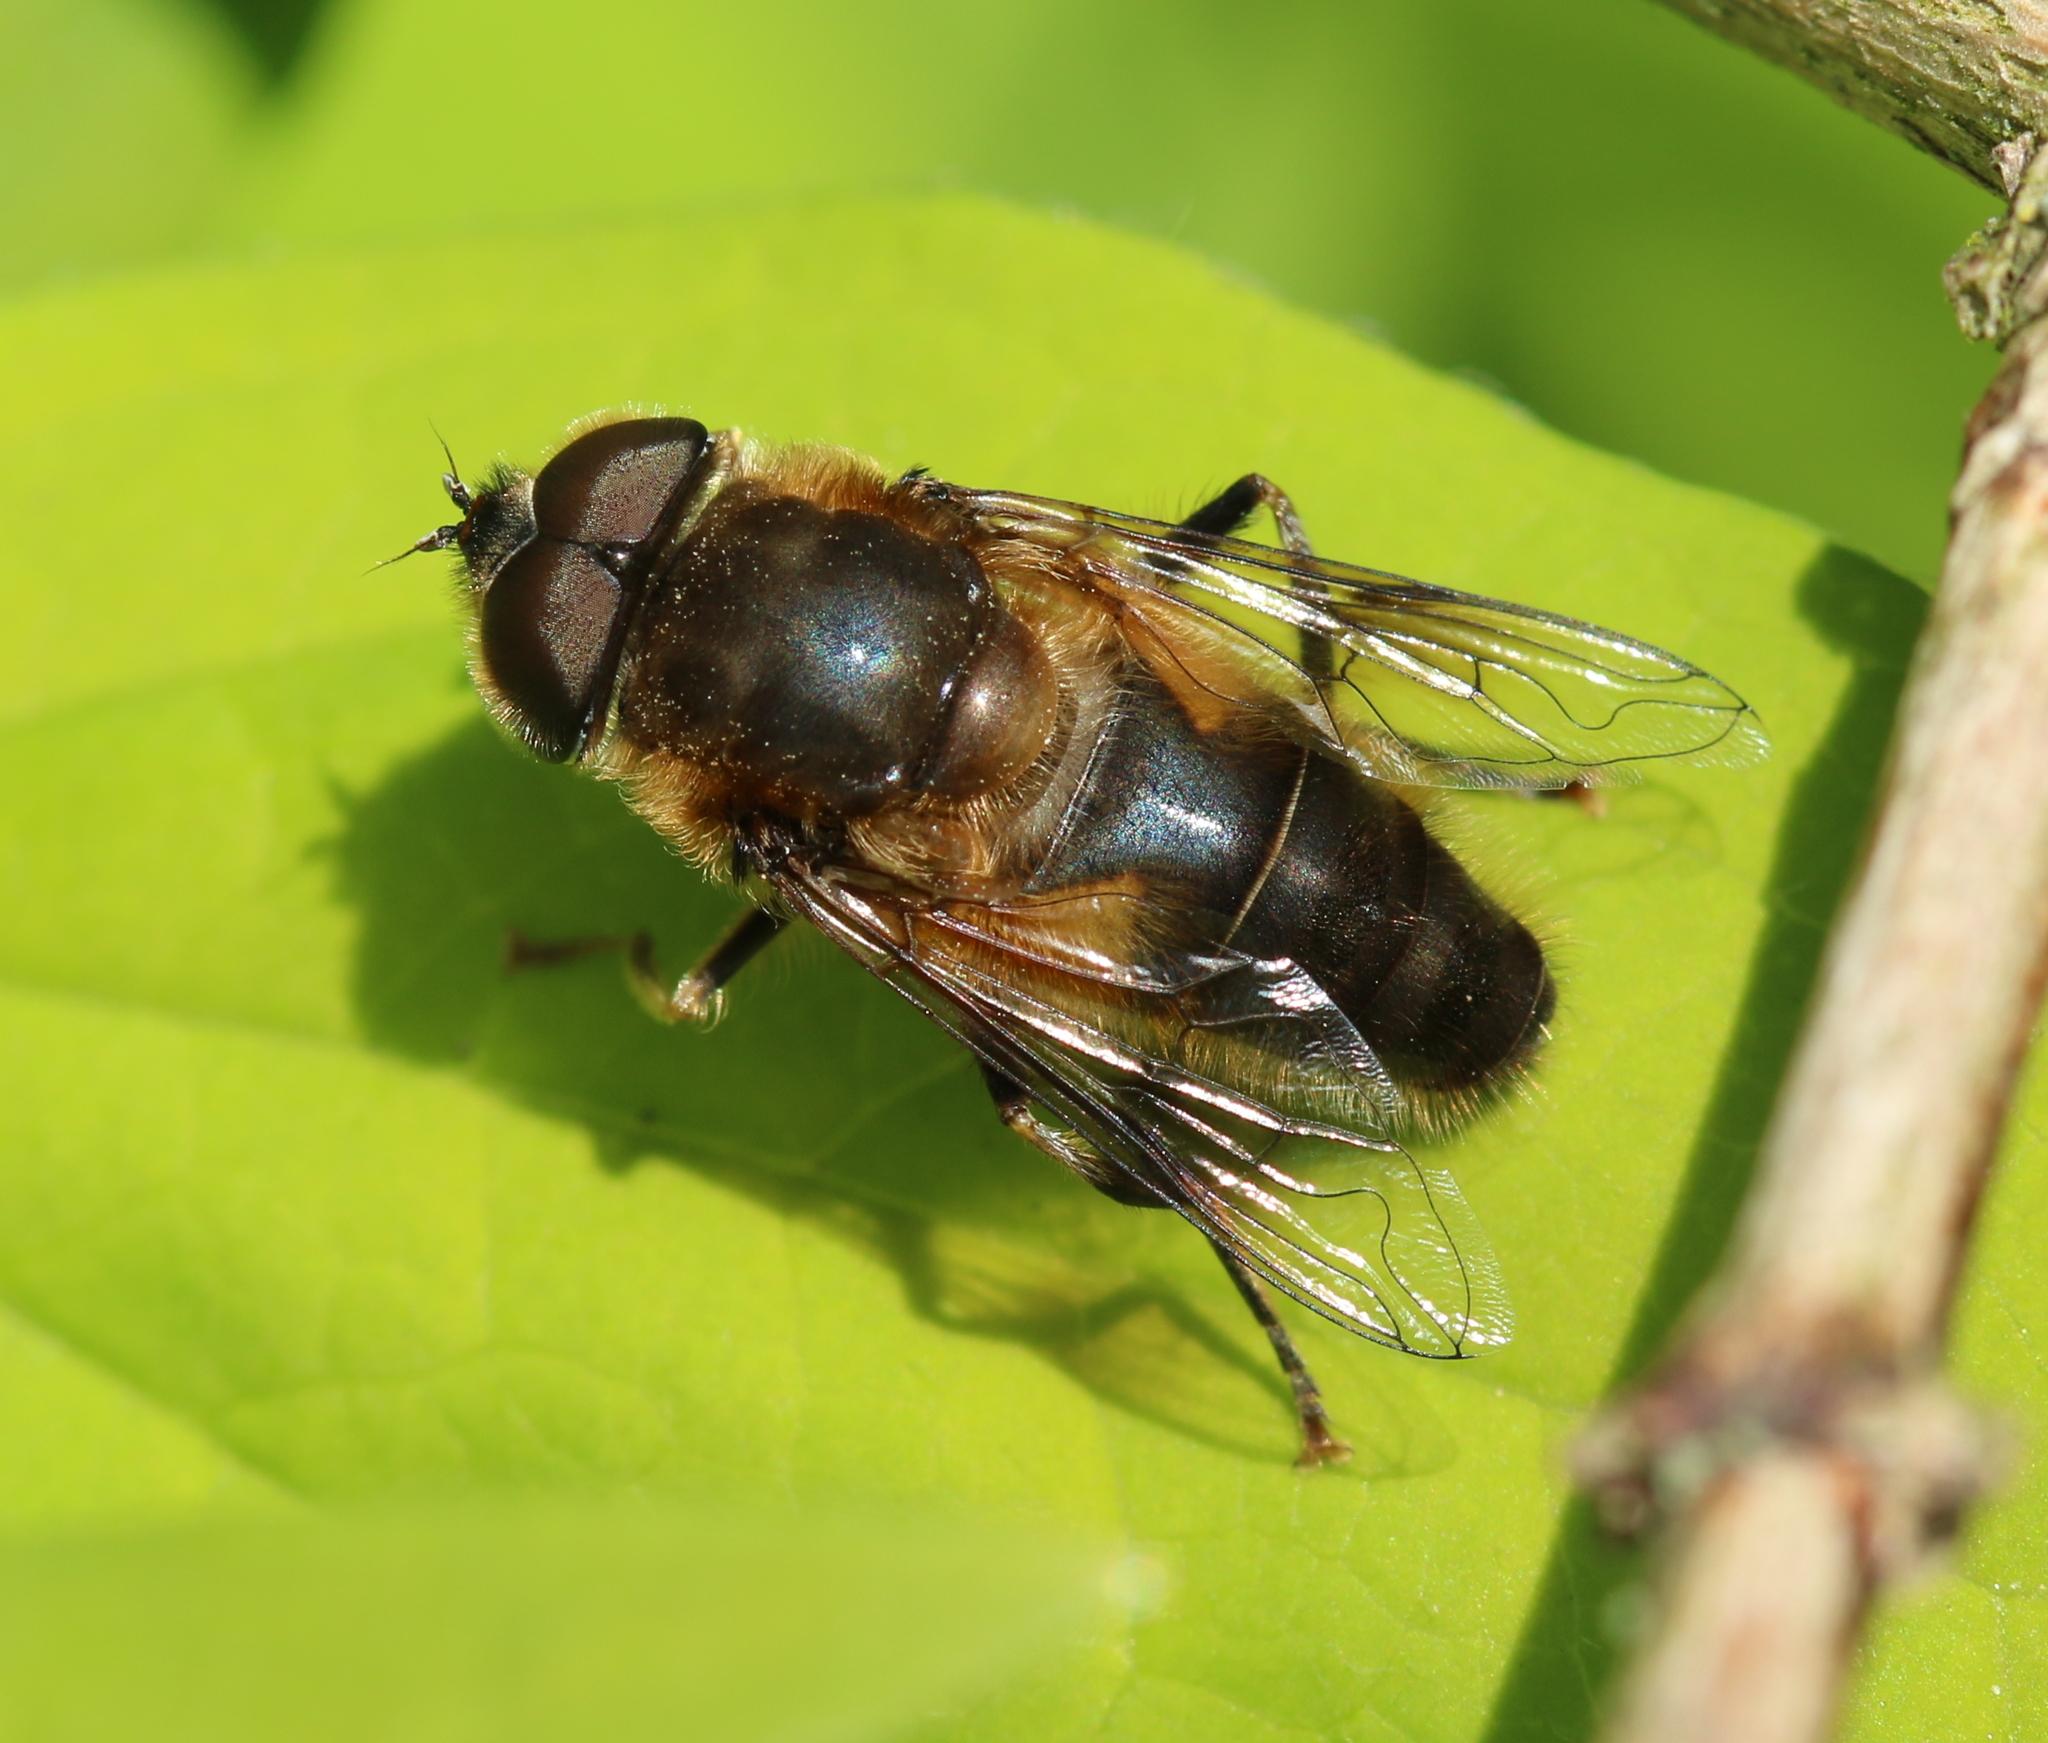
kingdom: Animalia
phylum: Arthropoda
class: Insecta
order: Diptera
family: Syrphidae
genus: Eristalis
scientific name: Eristalis pertinax
